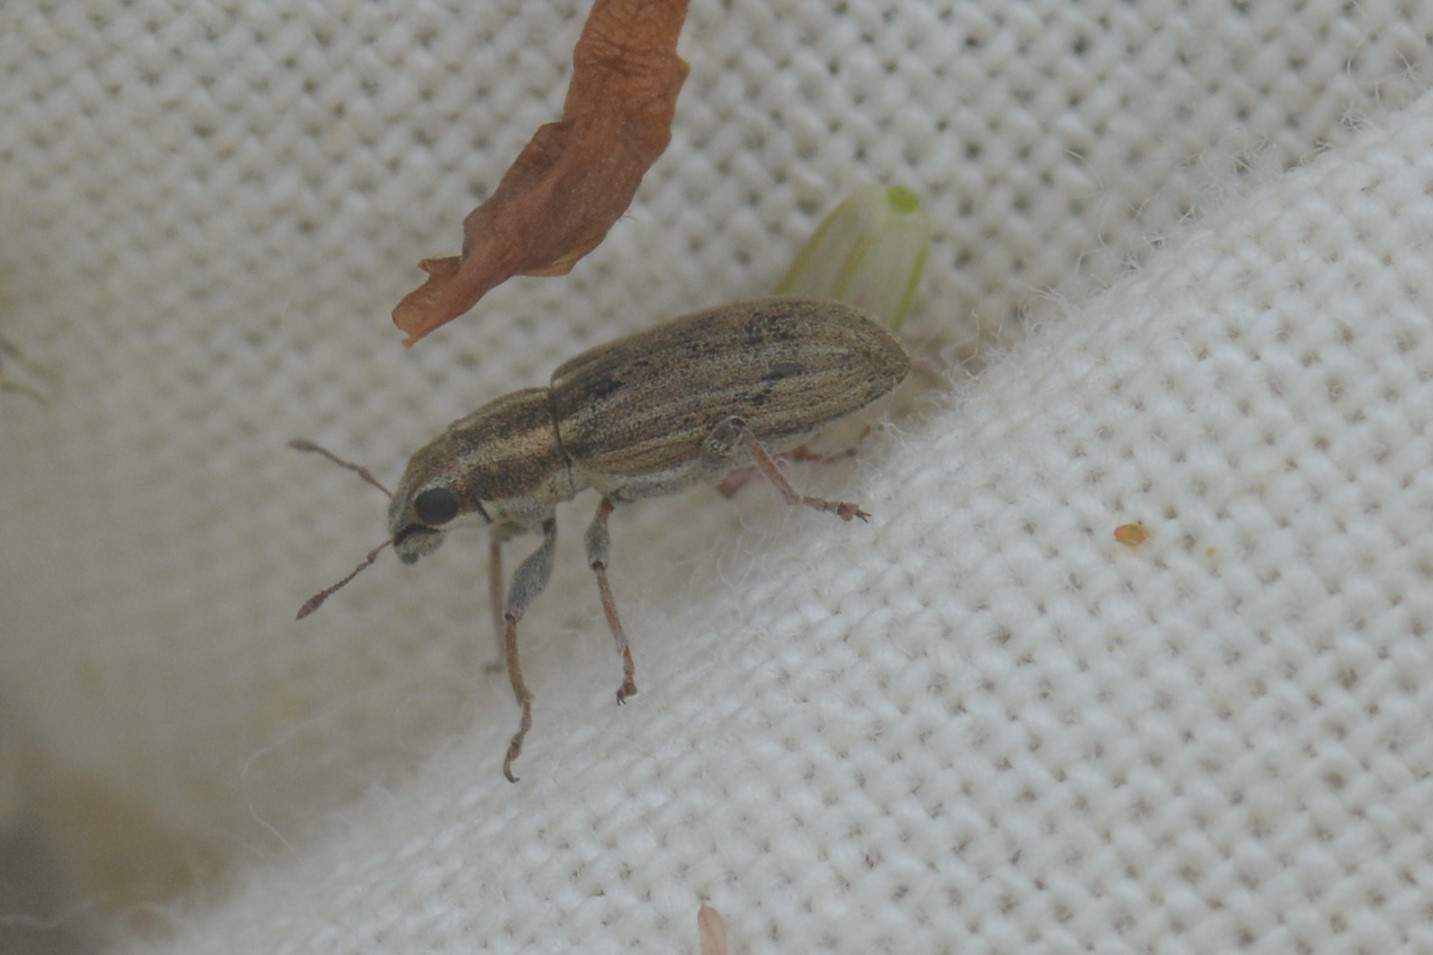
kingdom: Animalia
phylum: Arthropoda
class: Insecta
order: Coleoptera
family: Curculionidae
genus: Sitona
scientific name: Sitona lineatus
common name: Weevil
